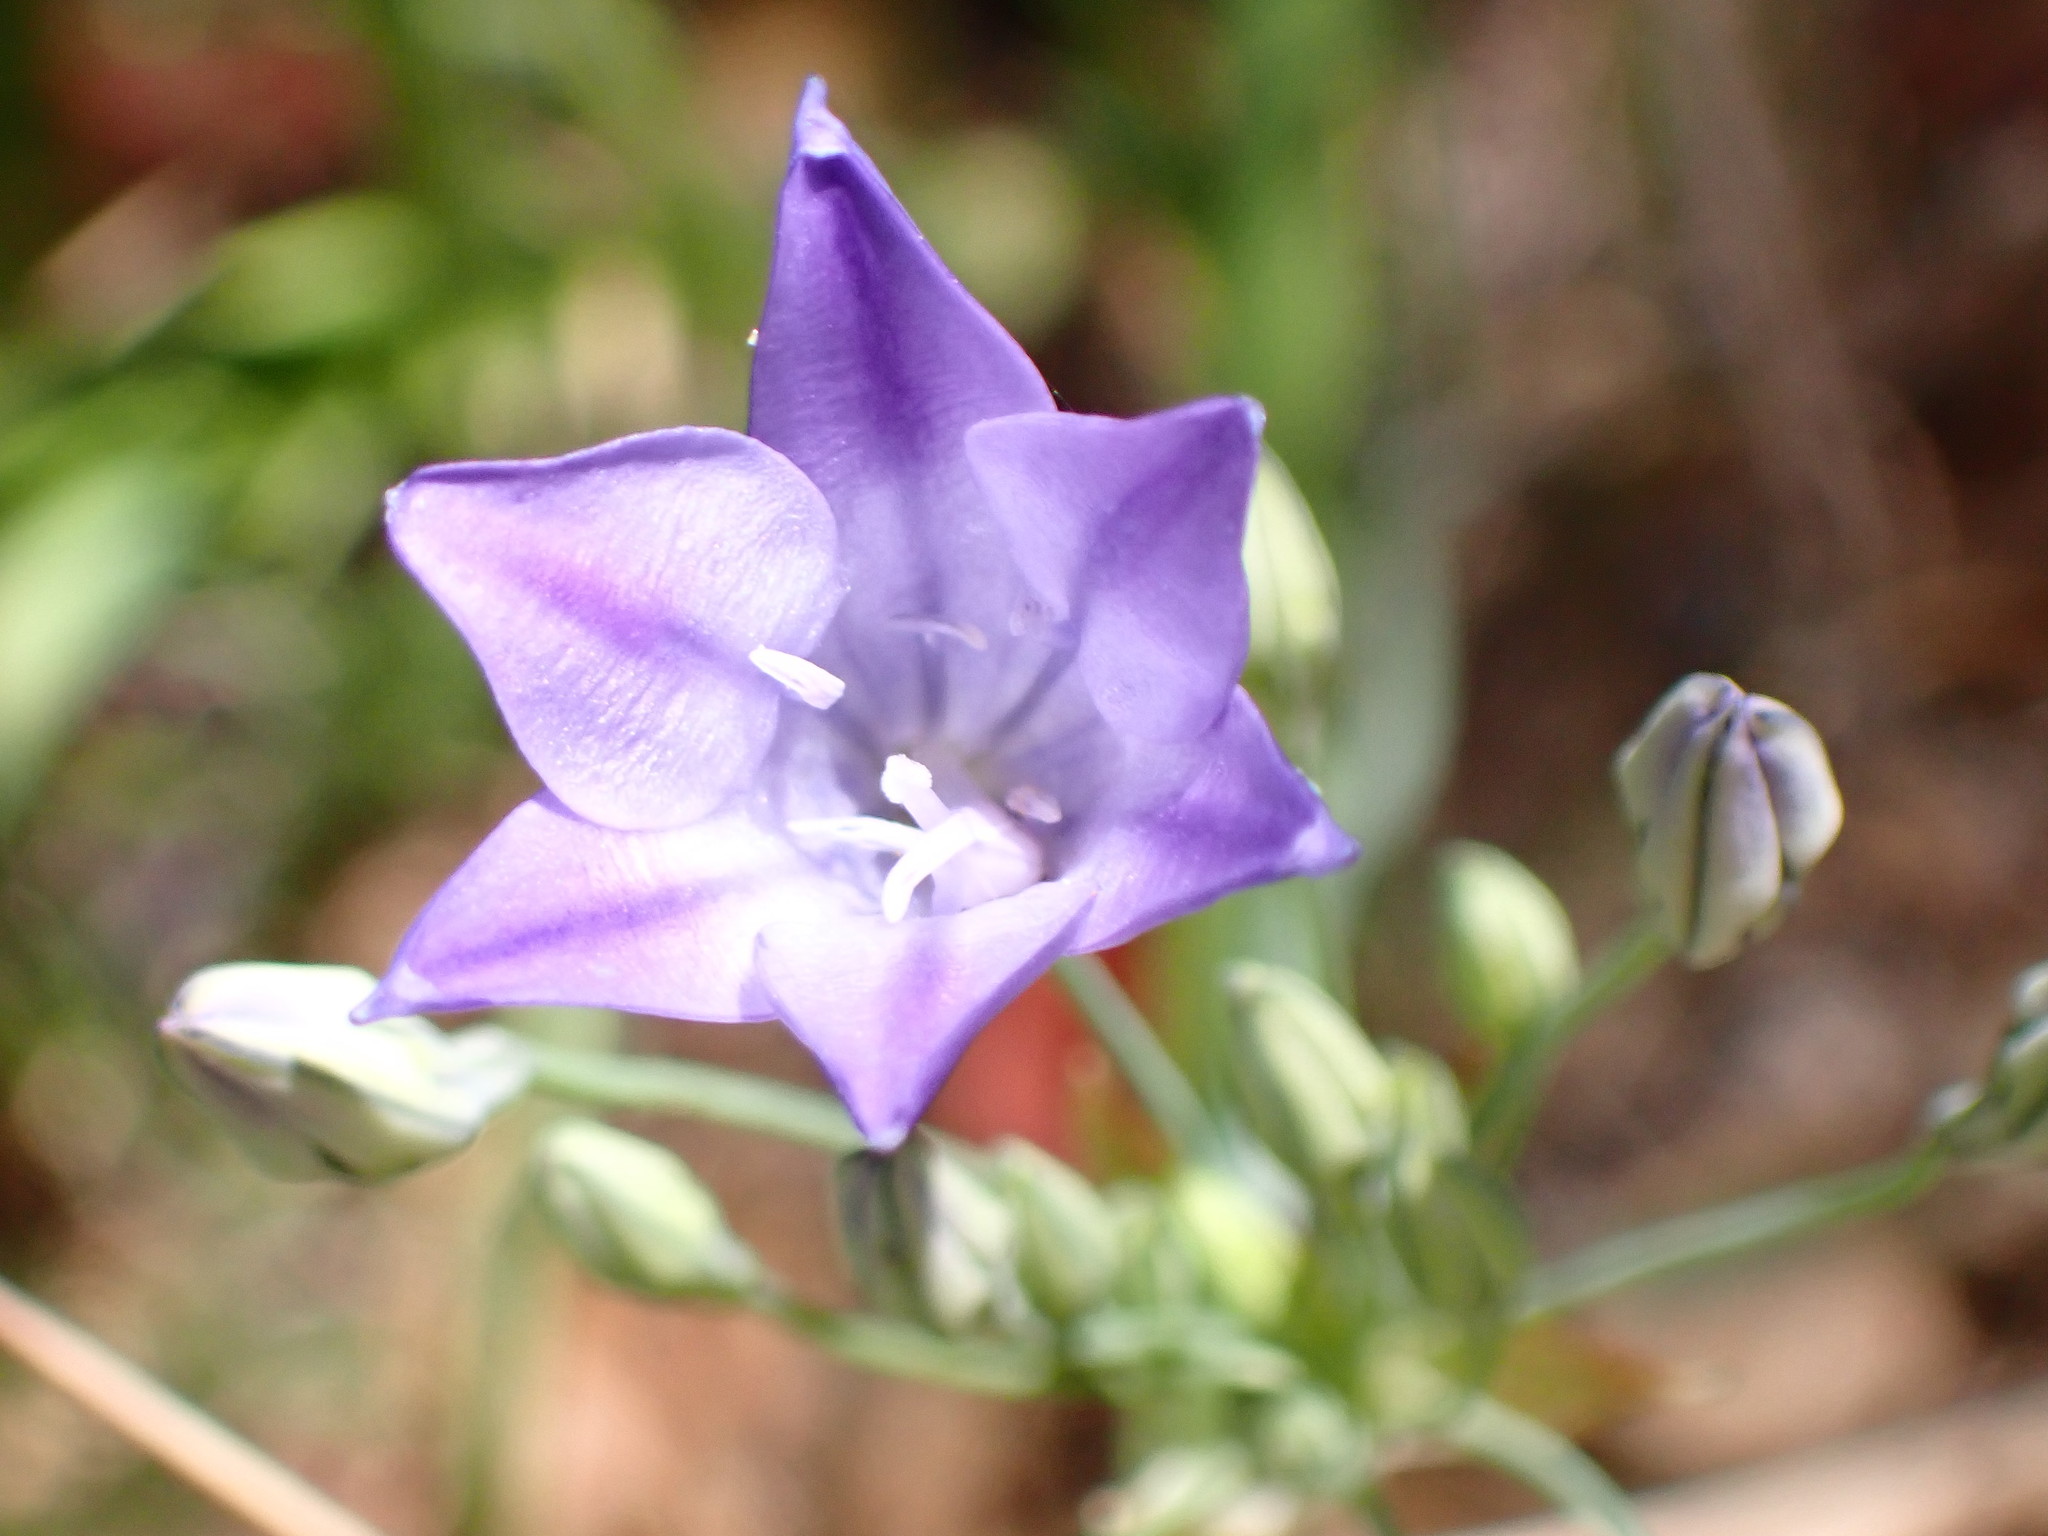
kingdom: Plantae
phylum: Tracheophyta
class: Liliopsida
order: Asparagales
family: Asparagaceae
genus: Triteleia
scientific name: Triteleia laxa
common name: Triplet-lily
